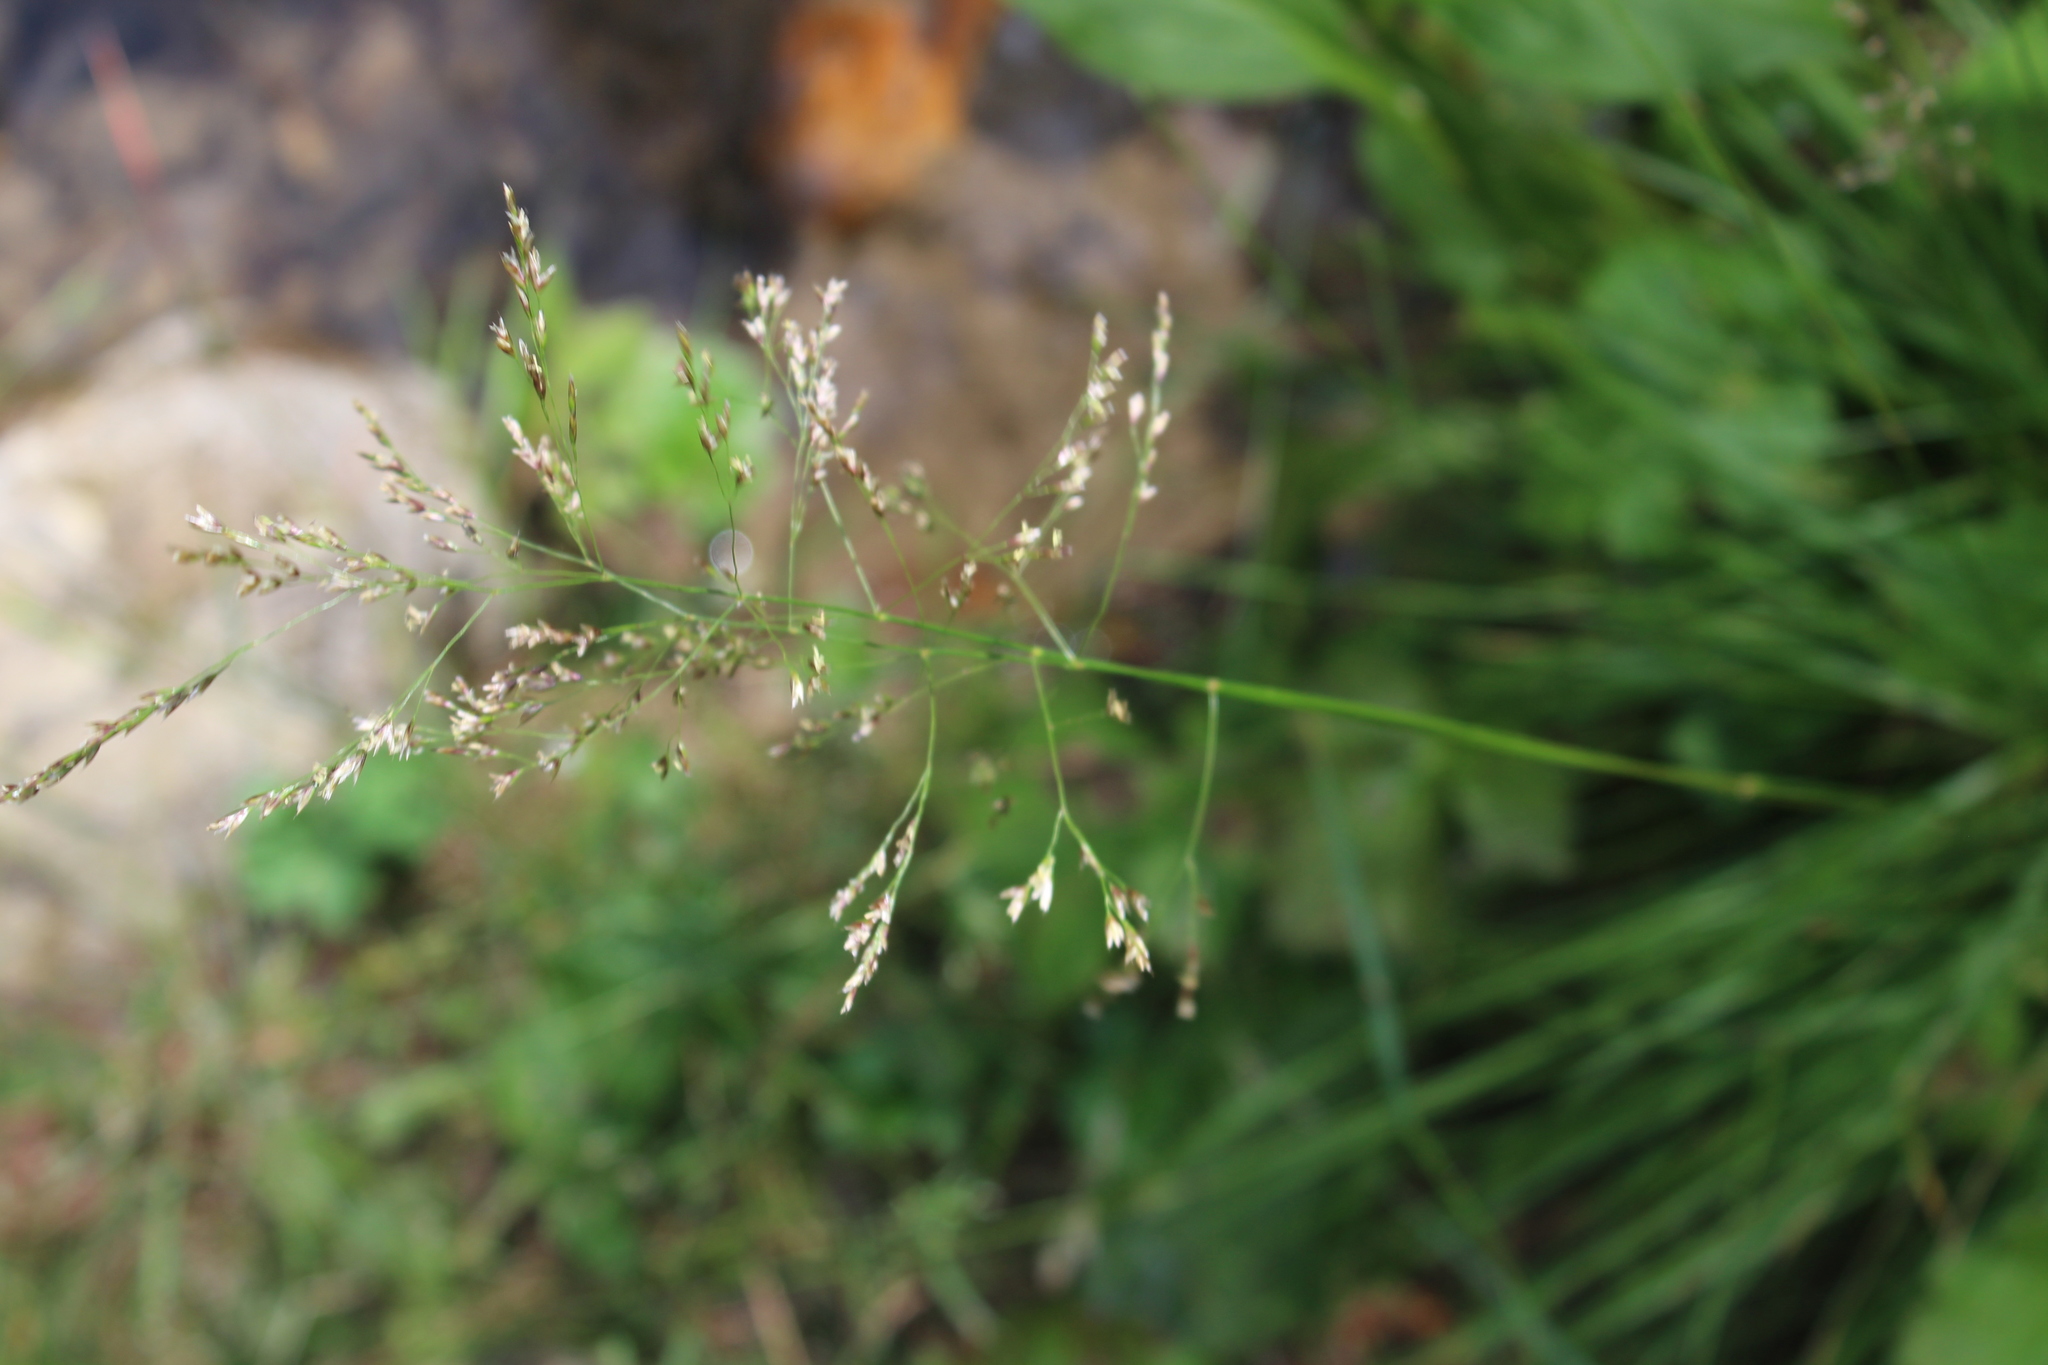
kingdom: Plantae
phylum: Tracheophyta
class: Liliopsida
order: Poales
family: Poaceae
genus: Deschampsia
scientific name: Deschampsia cespitosa
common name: Tufted hair-grass
